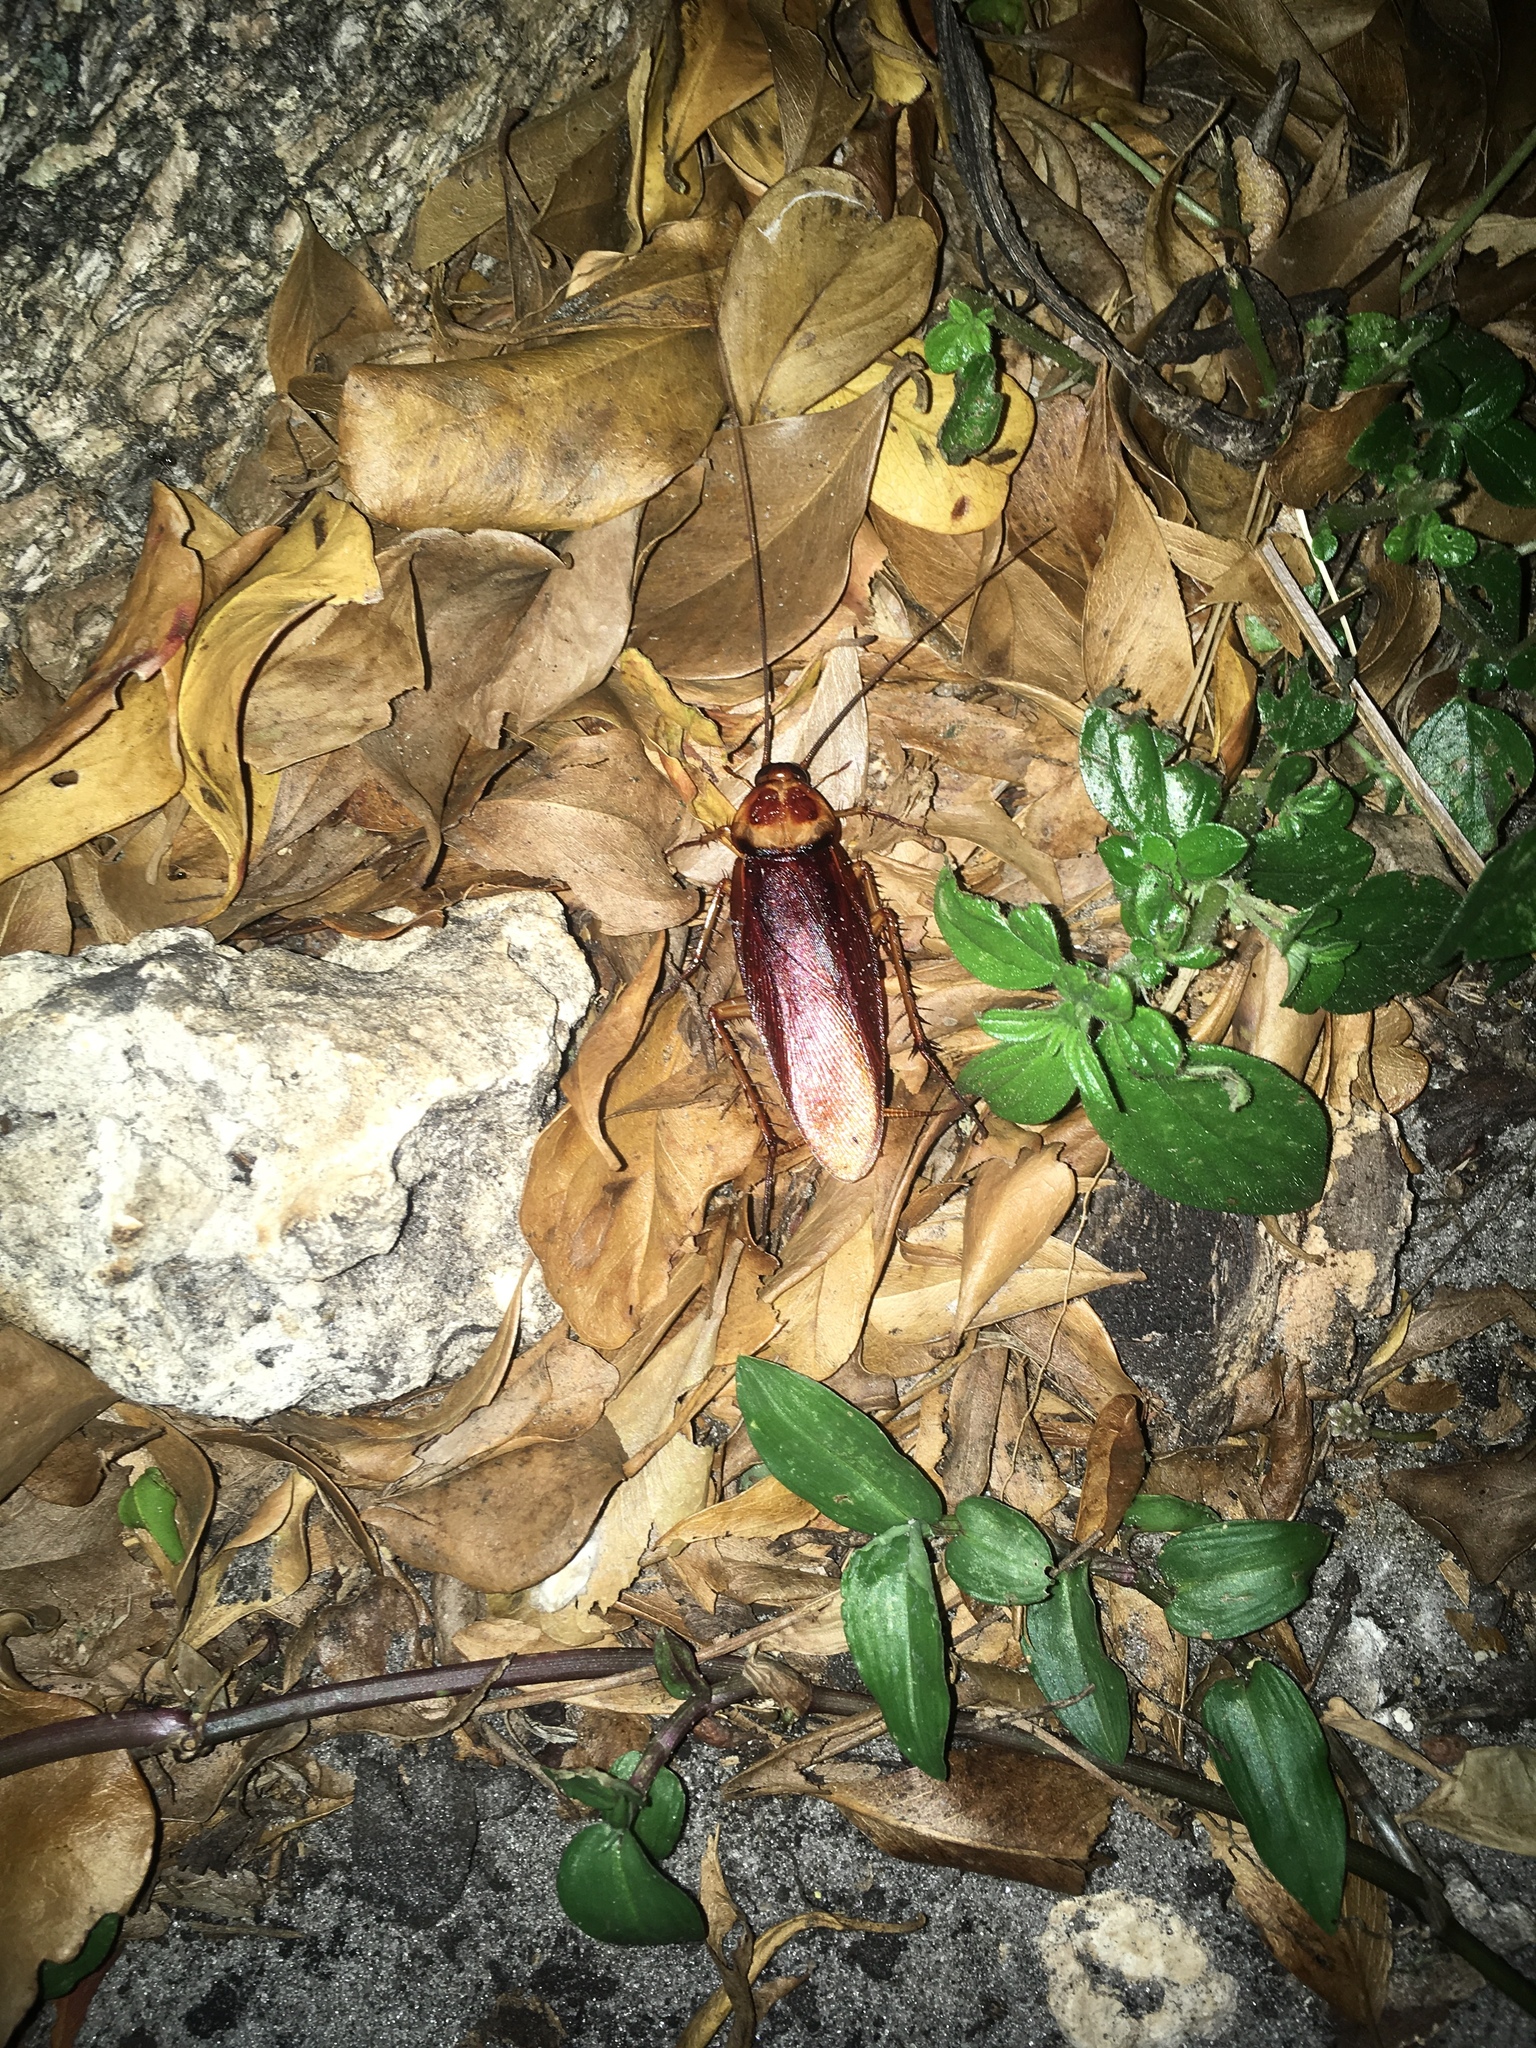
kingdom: Animalia
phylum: Arthropoda
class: Insecta
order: Blattodea
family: Blattidae
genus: Periplaneta
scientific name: Periplaneta americana
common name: American cockroach
